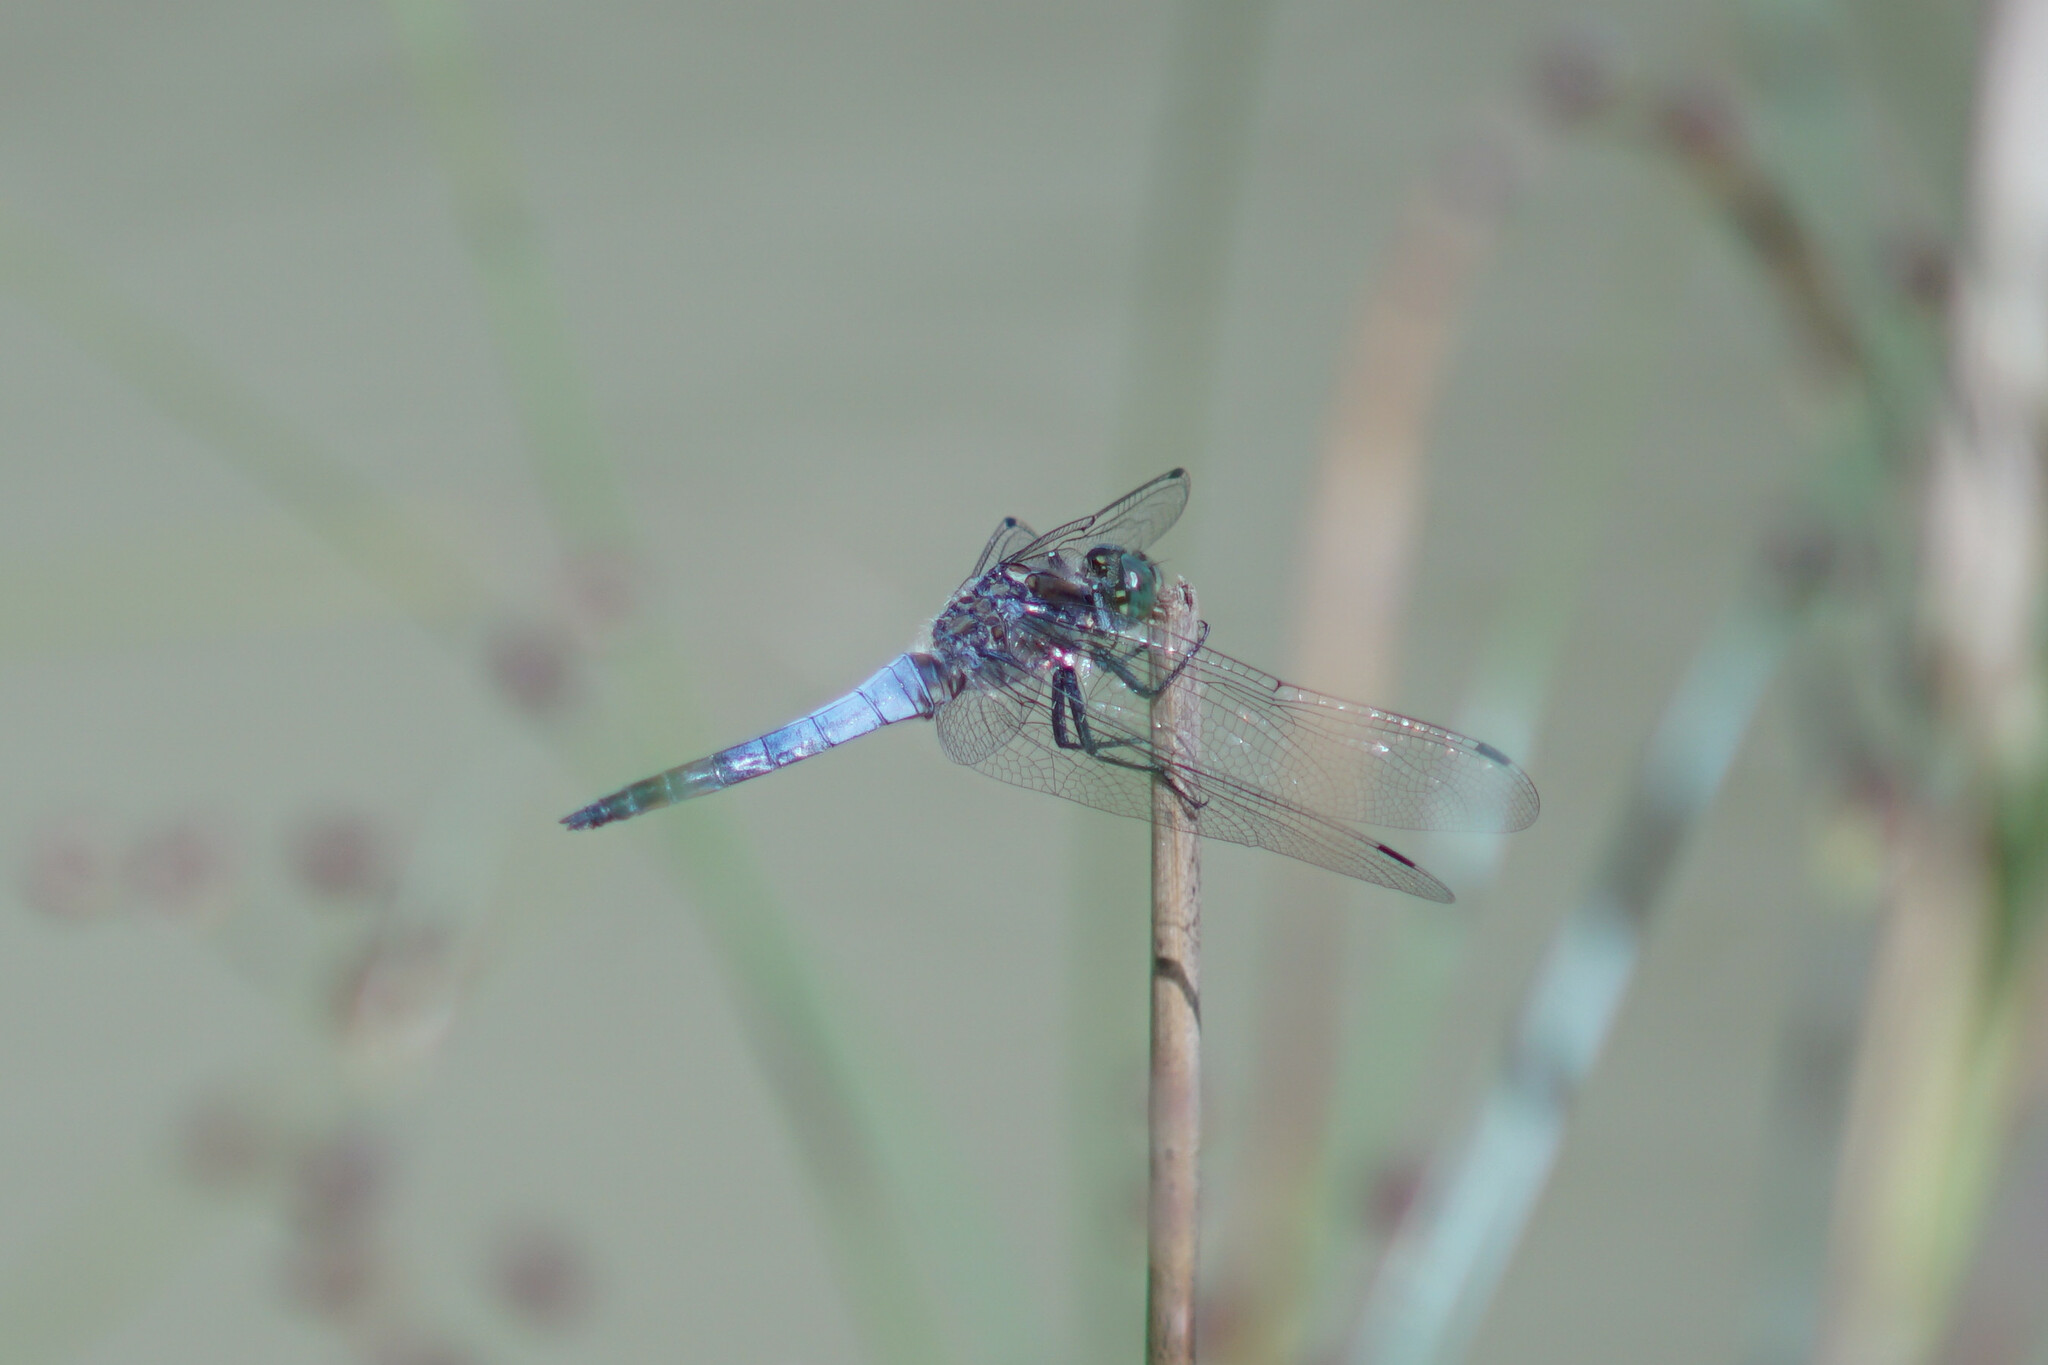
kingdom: Animalia
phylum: Arthropoda
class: Insecta
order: Odonata
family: Libellulidae
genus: Orthetrum
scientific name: Orthetrum cancellatum
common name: Black-tailed skimmer
